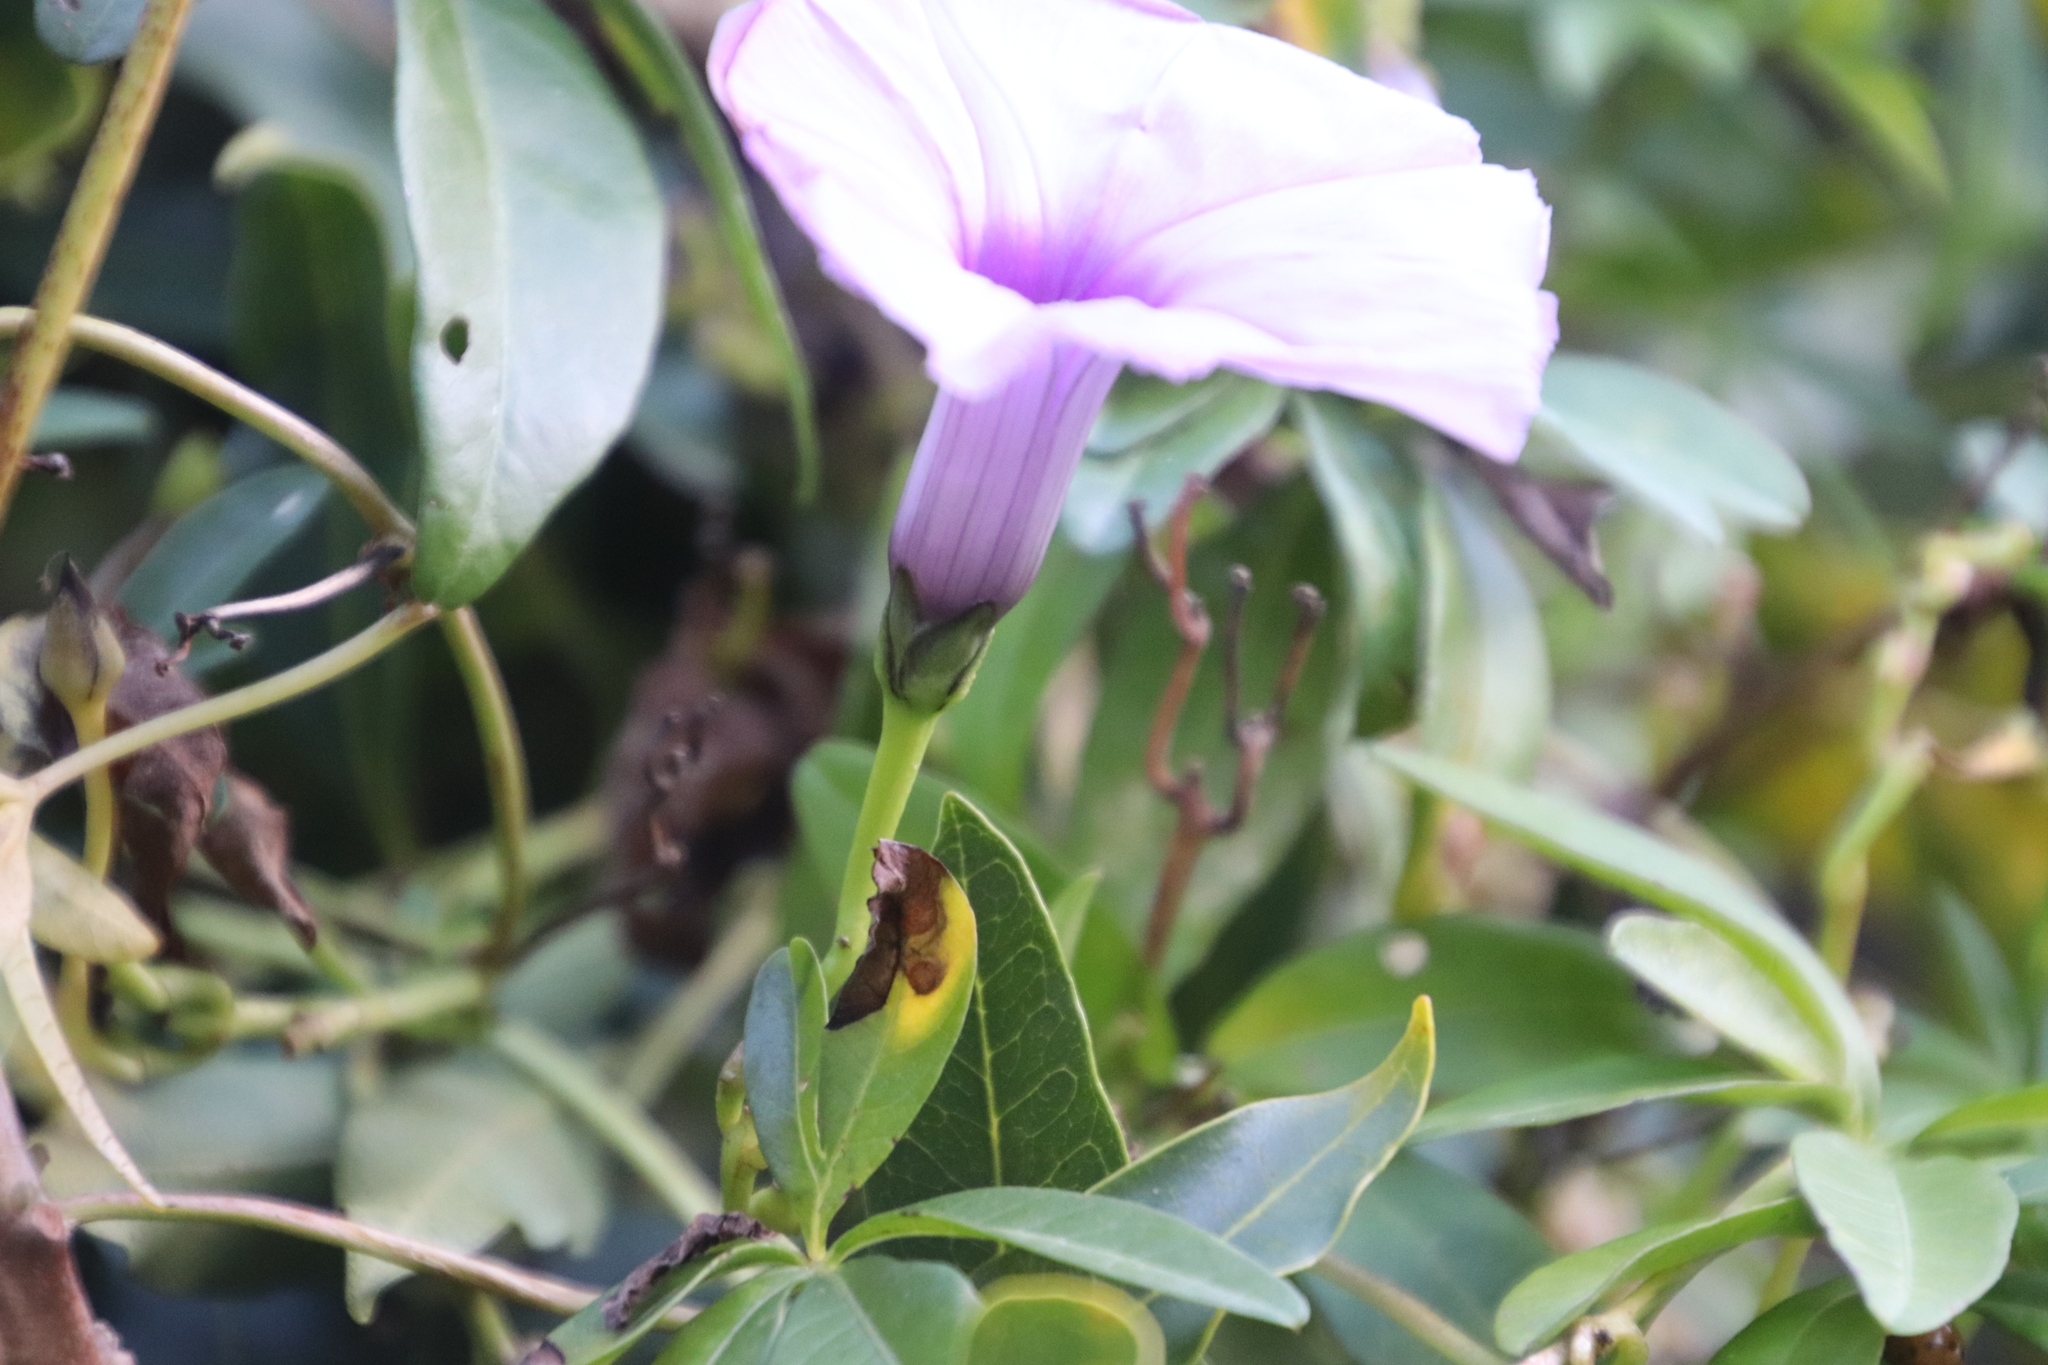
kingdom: Plantae
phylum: Tracheophyta
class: Magnoliopsida
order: Solanales
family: Convolvulaceae
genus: Ipomoea
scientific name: Ipomoea cairica
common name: Mile a minute vine
